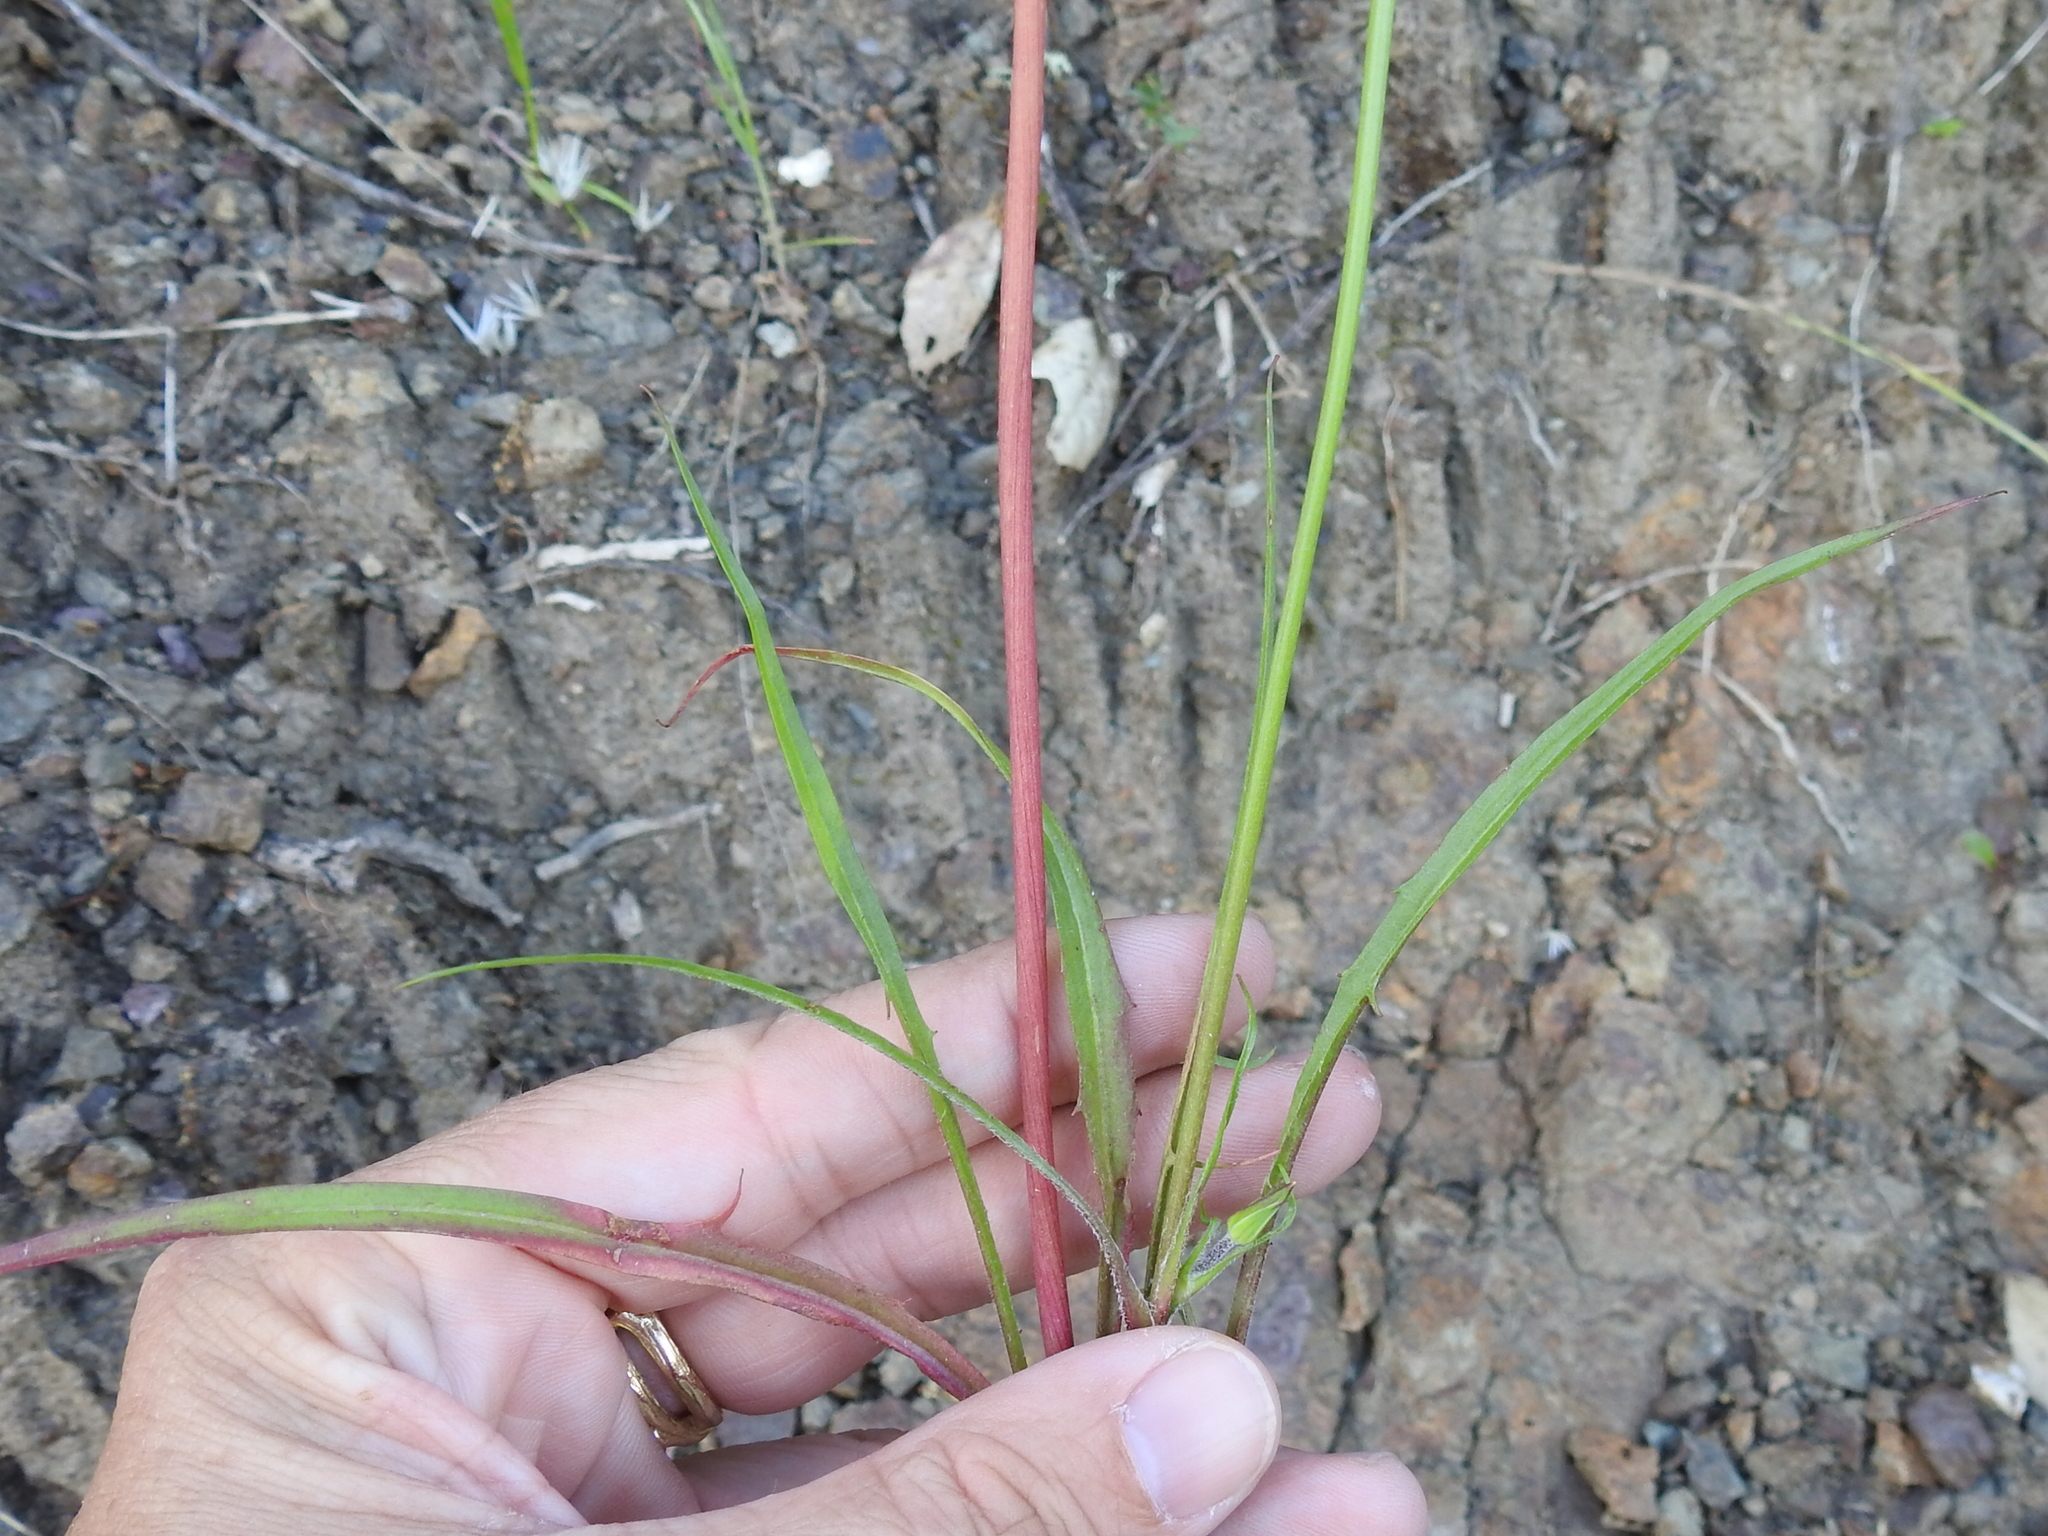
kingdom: Plantae
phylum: Tracheophyta
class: Magnoliopsida
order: Asterales
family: Asteraceae
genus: Microseris
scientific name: Microseris lindleyi
